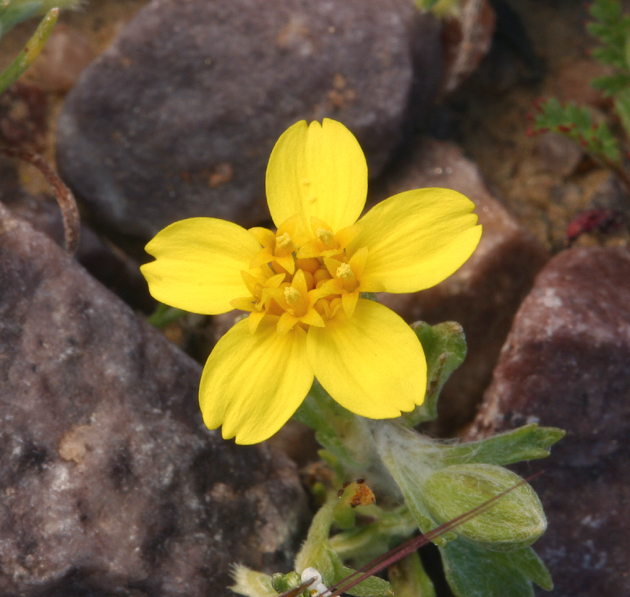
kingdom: Plantae
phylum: Tracheophyta
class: Magnoliopsida
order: Asterales
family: Asteraceae
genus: Syntrichopappus
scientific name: Syntrichopappus fremontii
